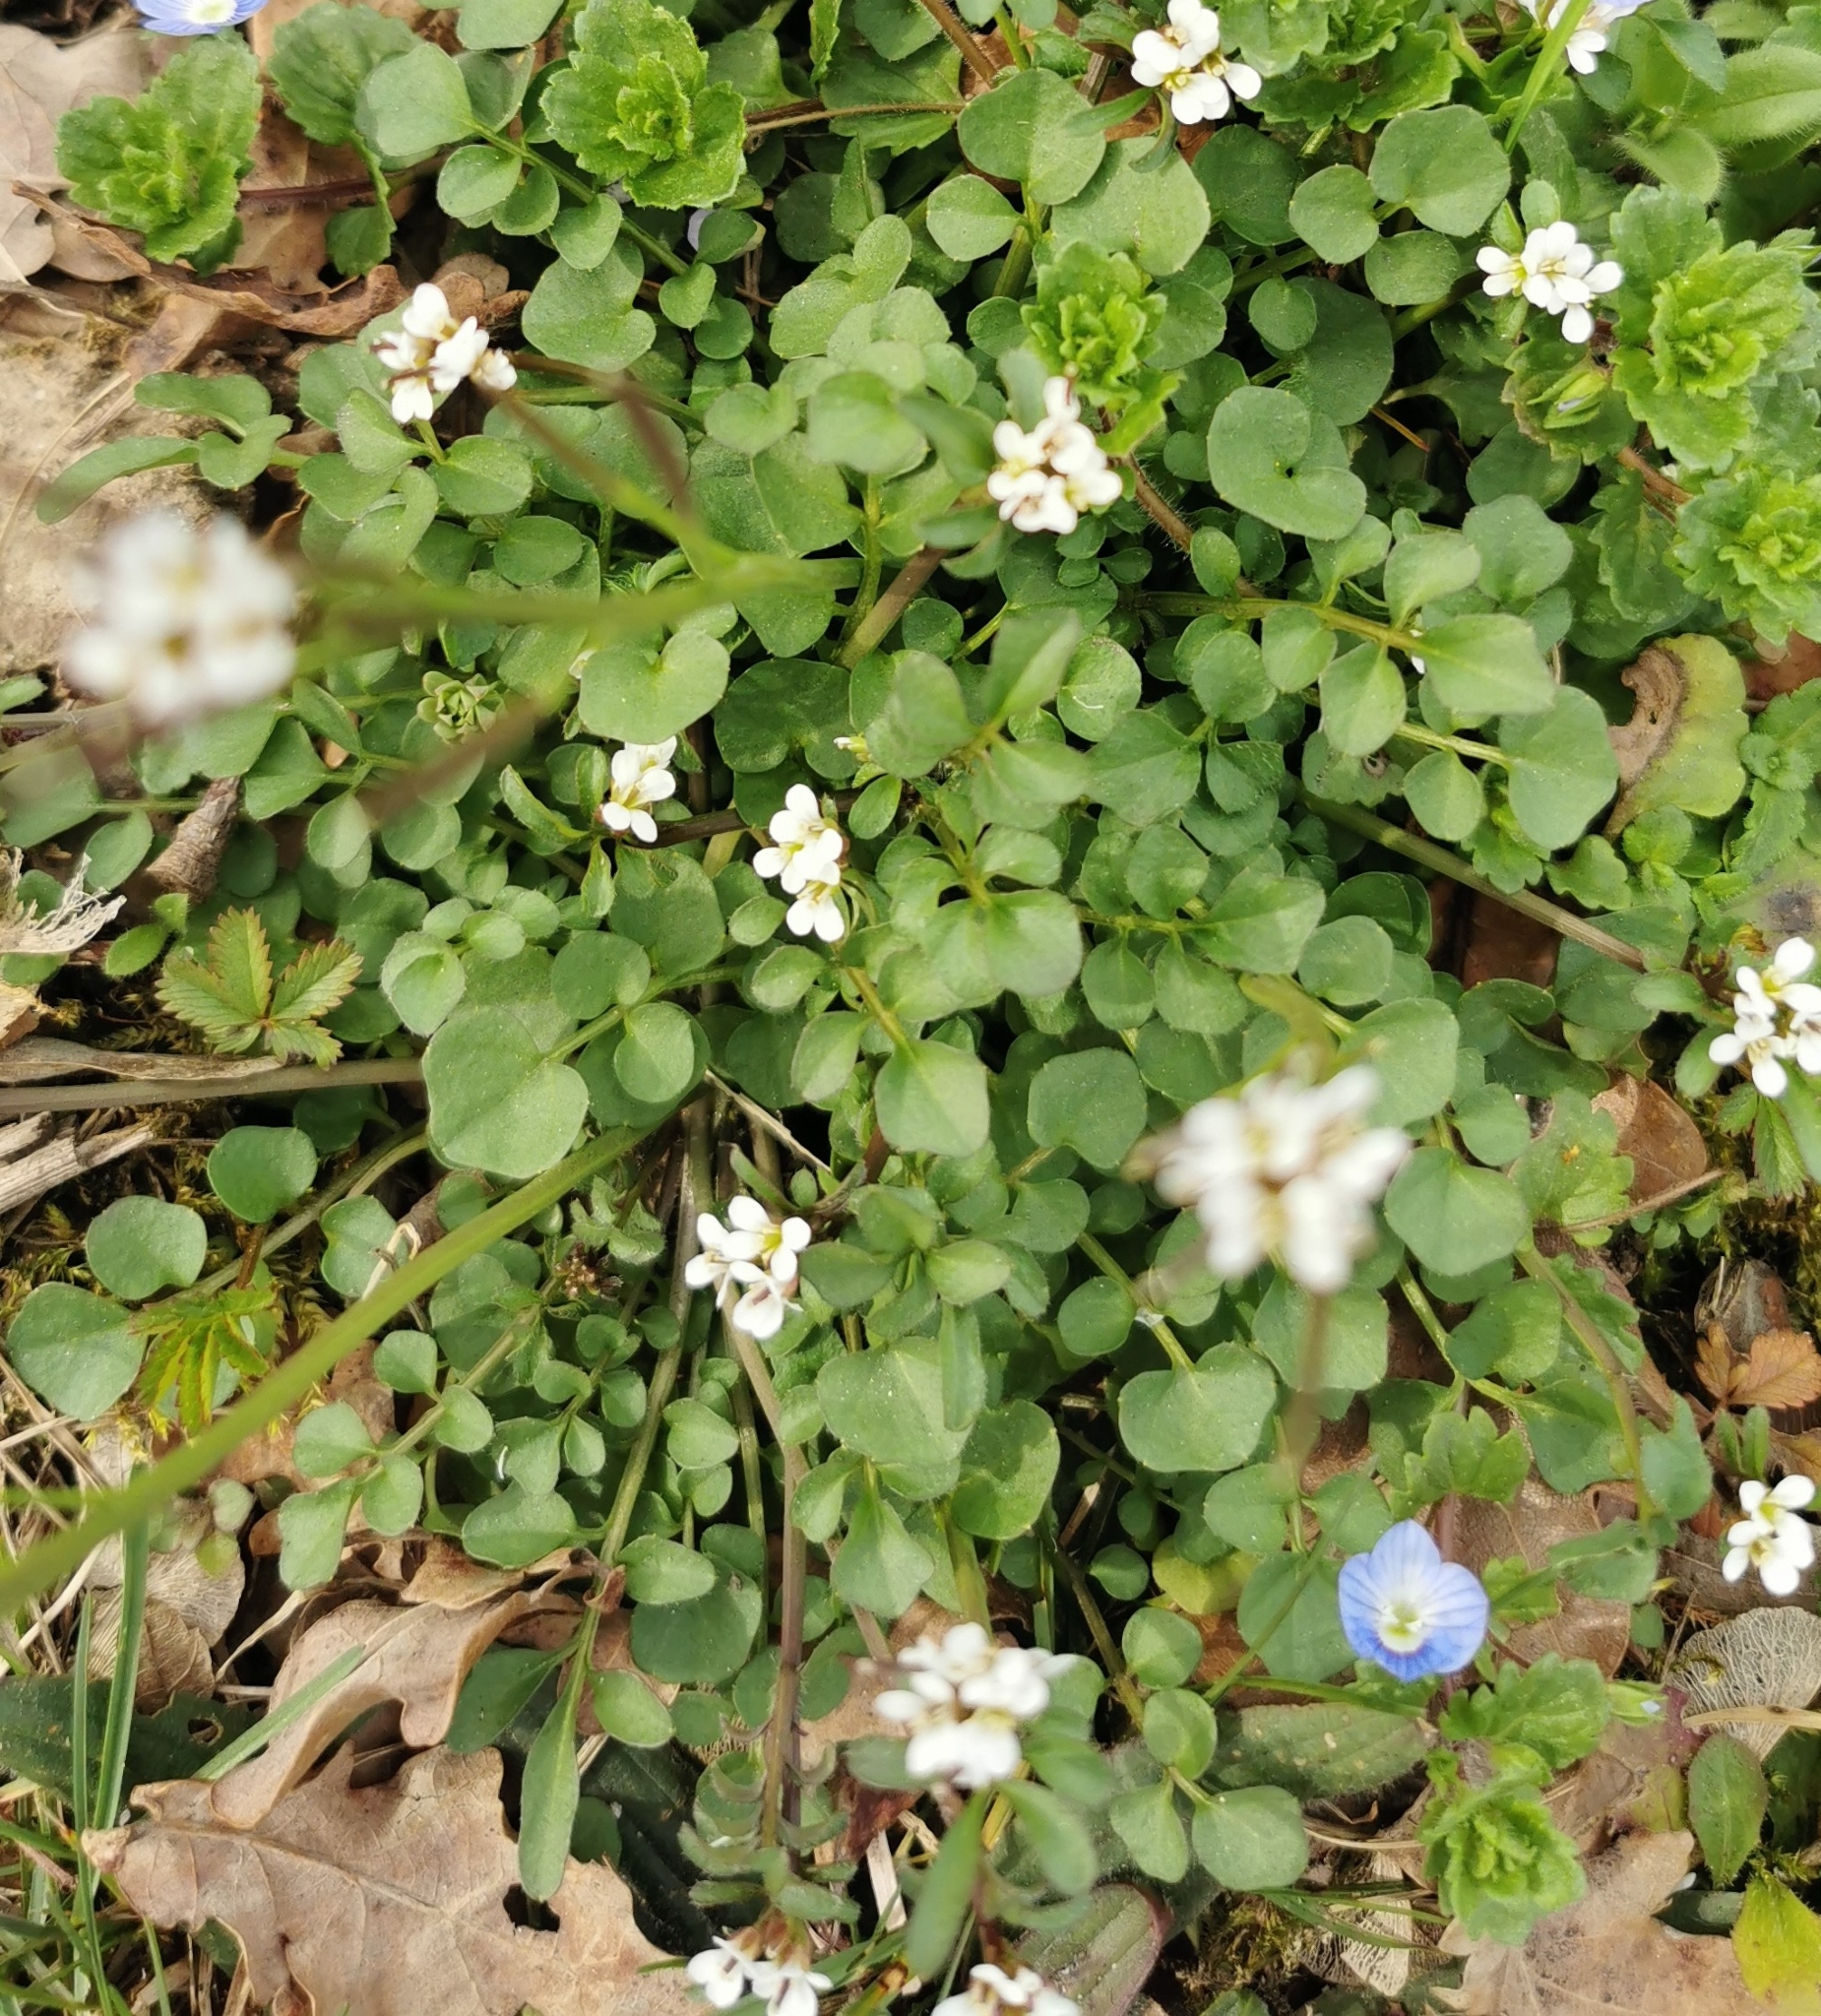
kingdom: Plantae
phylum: Tracheophyta
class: Magnoliopsida
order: Brassicales
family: Brassicaceae
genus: Cardamine
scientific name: Cardamine hirsuta
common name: Hairy bittercress
